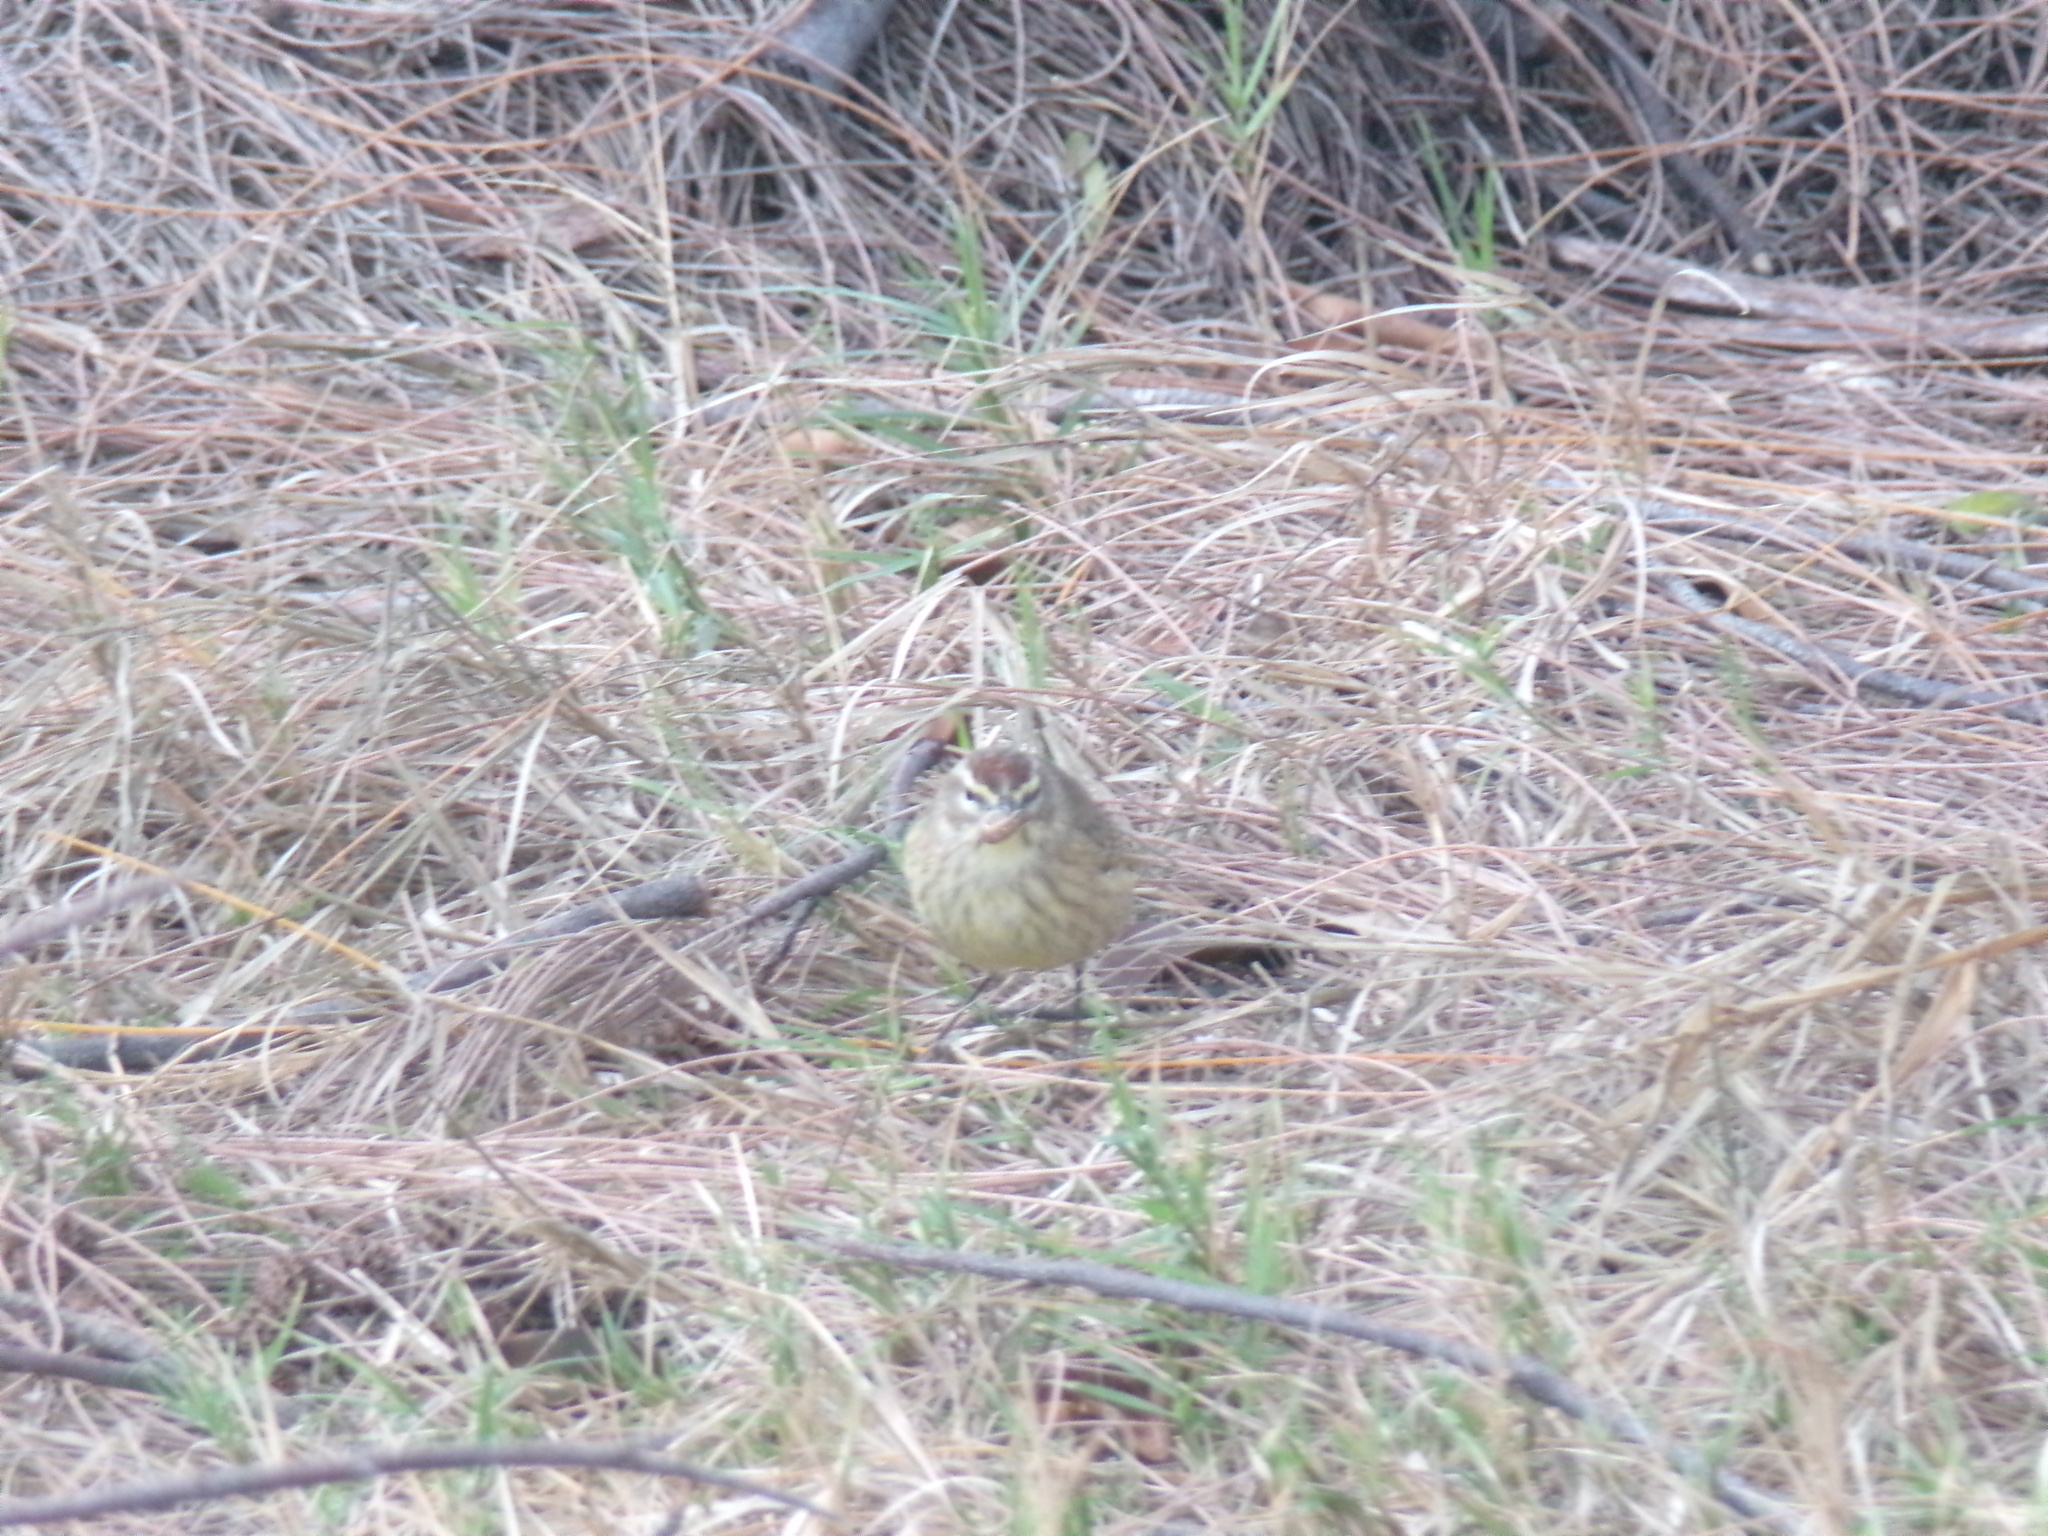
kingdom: Animalia
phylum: Chordata
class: Aves
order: Passeriformes
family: Parulidae
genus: Setophaga
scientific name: Setophaga palmarum
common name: Palm warbler
